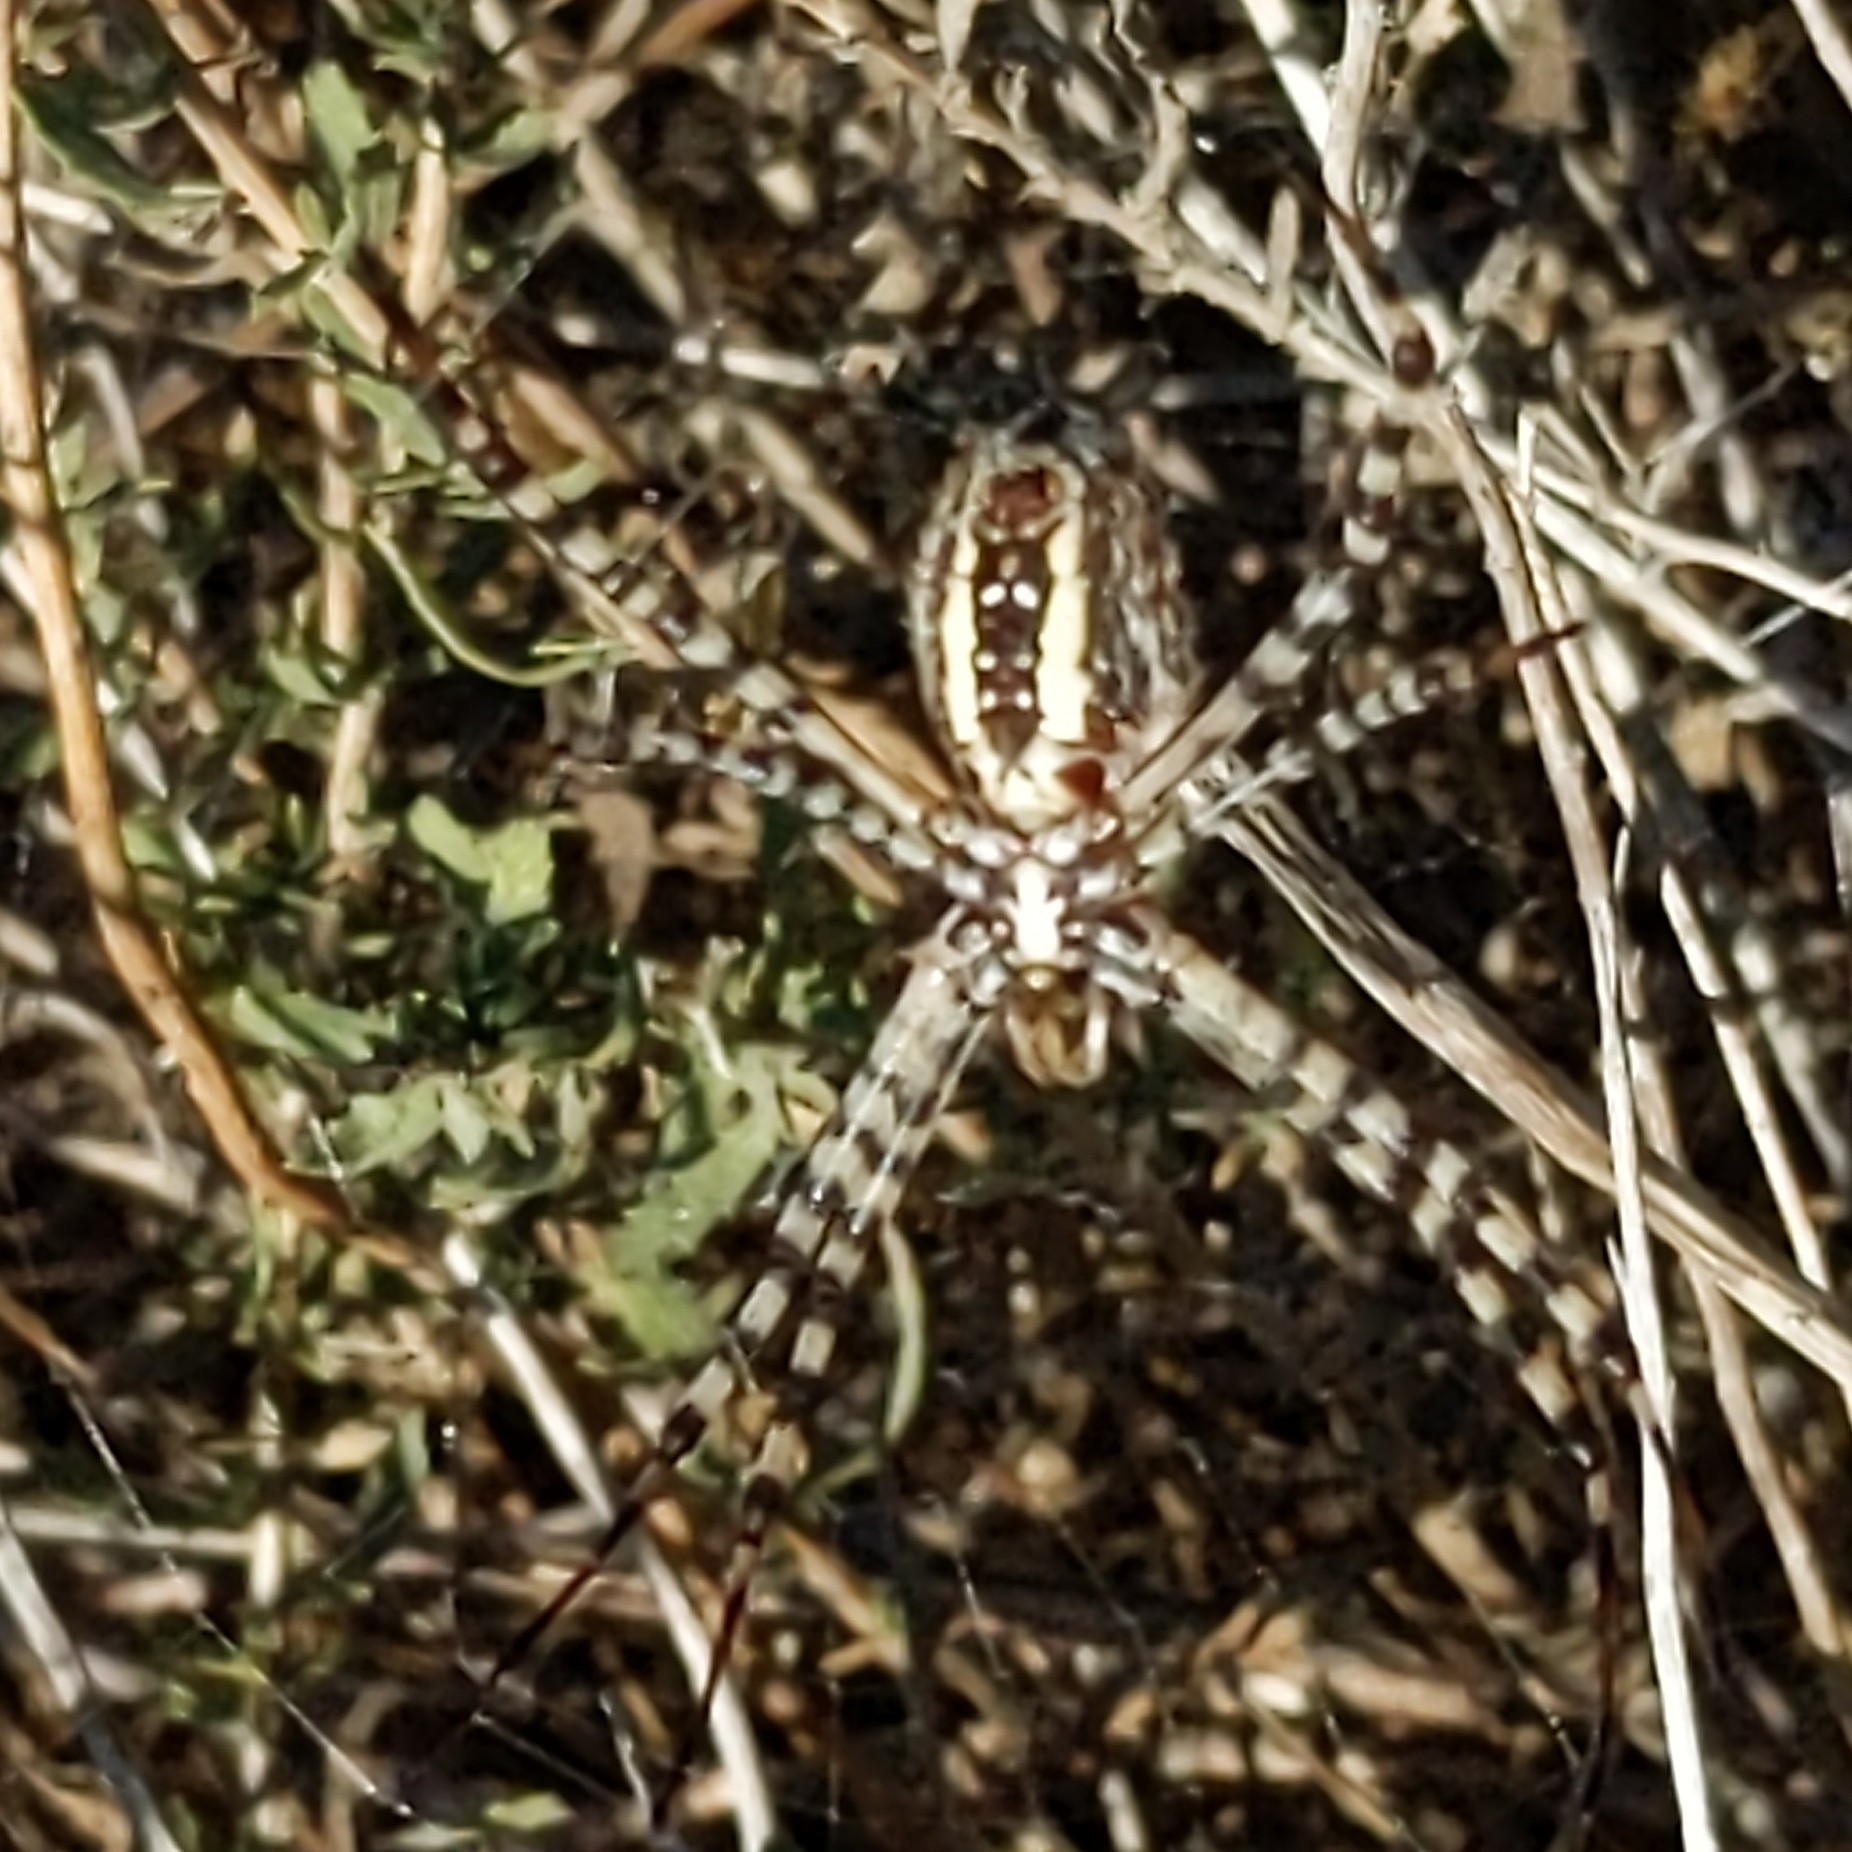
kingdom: Animalia
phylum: Arthropoda
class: Arachnida
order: Araneae
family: Araneidae
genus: Argiope
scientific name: Argiope trifasciata
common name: Banded garden spider
